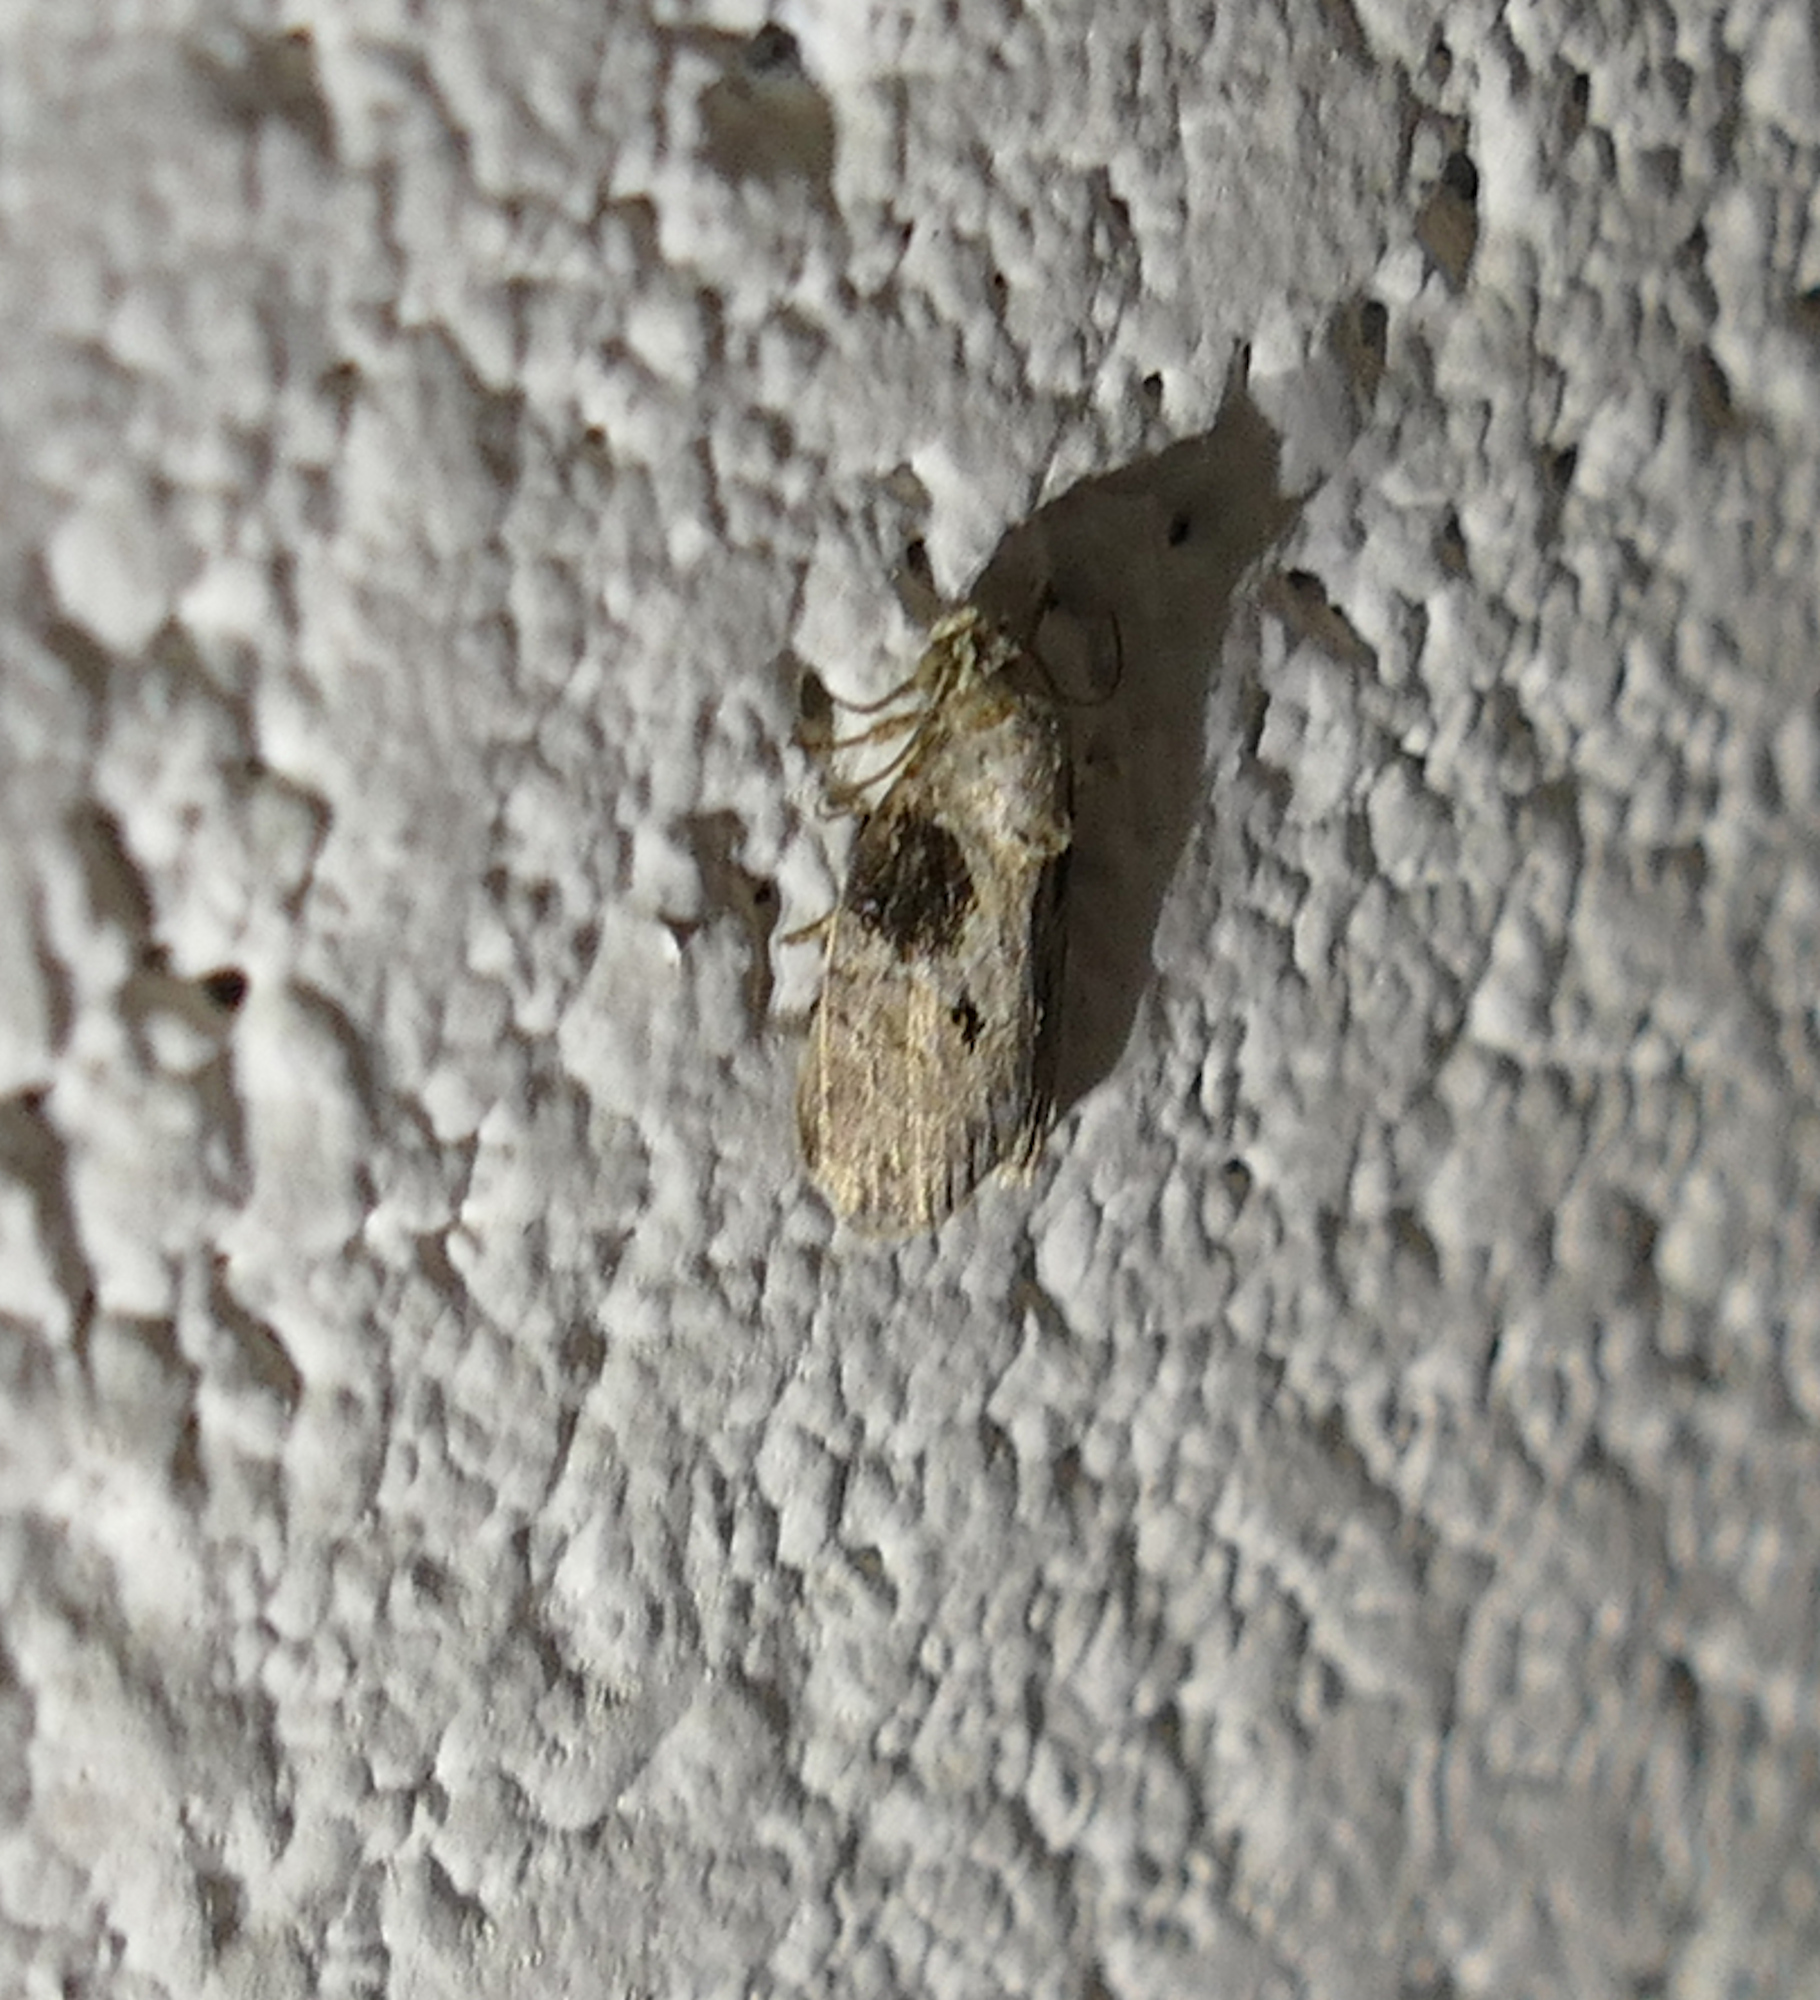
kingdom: Animalia
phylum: Arthropoda
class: Insecta
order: Lepidoptera
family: Nolidae
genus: Garella
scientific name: Garella nilotica
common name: Black-olive caterpillar moth
